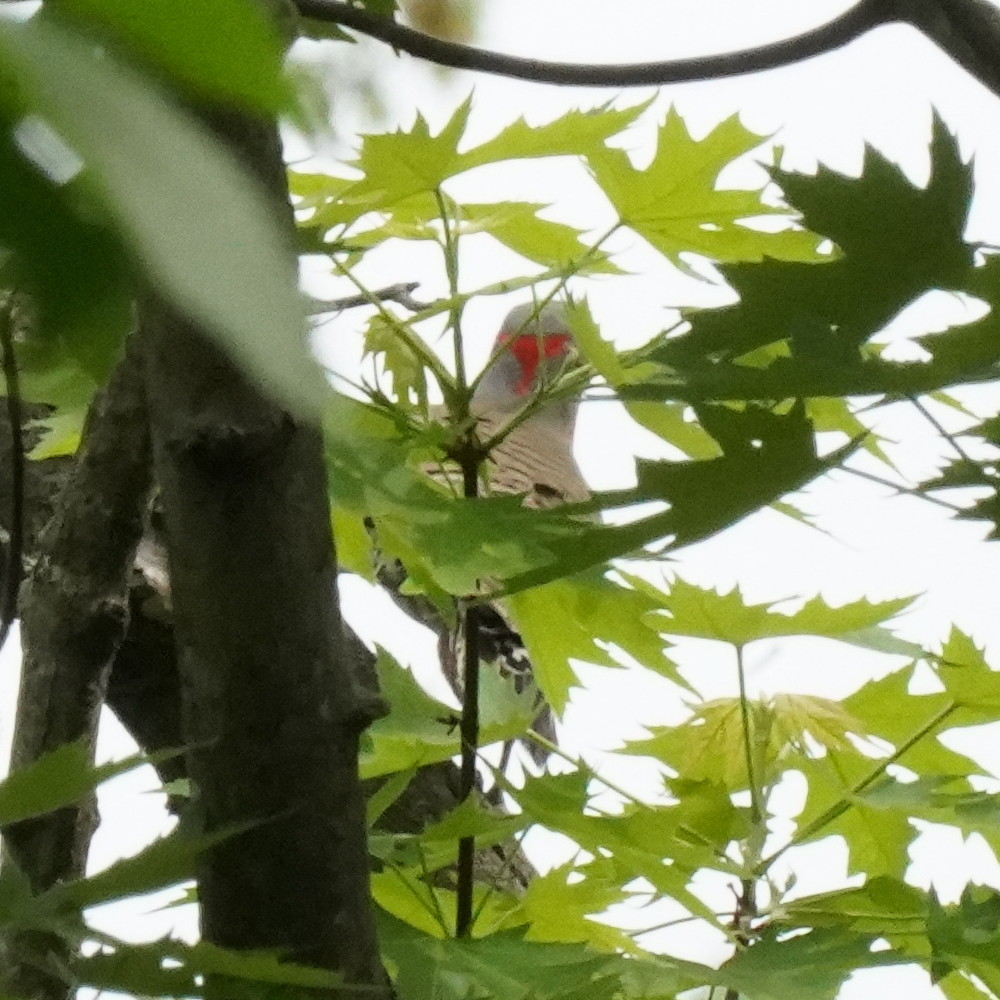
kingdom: Animalia
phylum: Chordata
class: Aves
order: Piciformes
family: Picidae
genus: Colaptes
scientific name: Colaptes auratus
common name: Northern flicker
